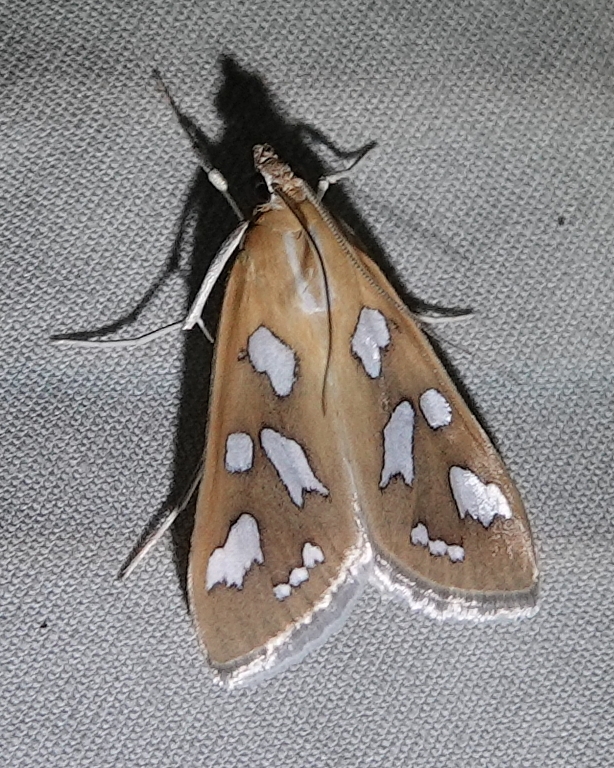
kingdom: Animalia
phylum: Arthropoda
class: Insecta
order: Lepidoptera
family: Crambidae
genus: Diastictis
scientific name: Diastictis fracturalis
